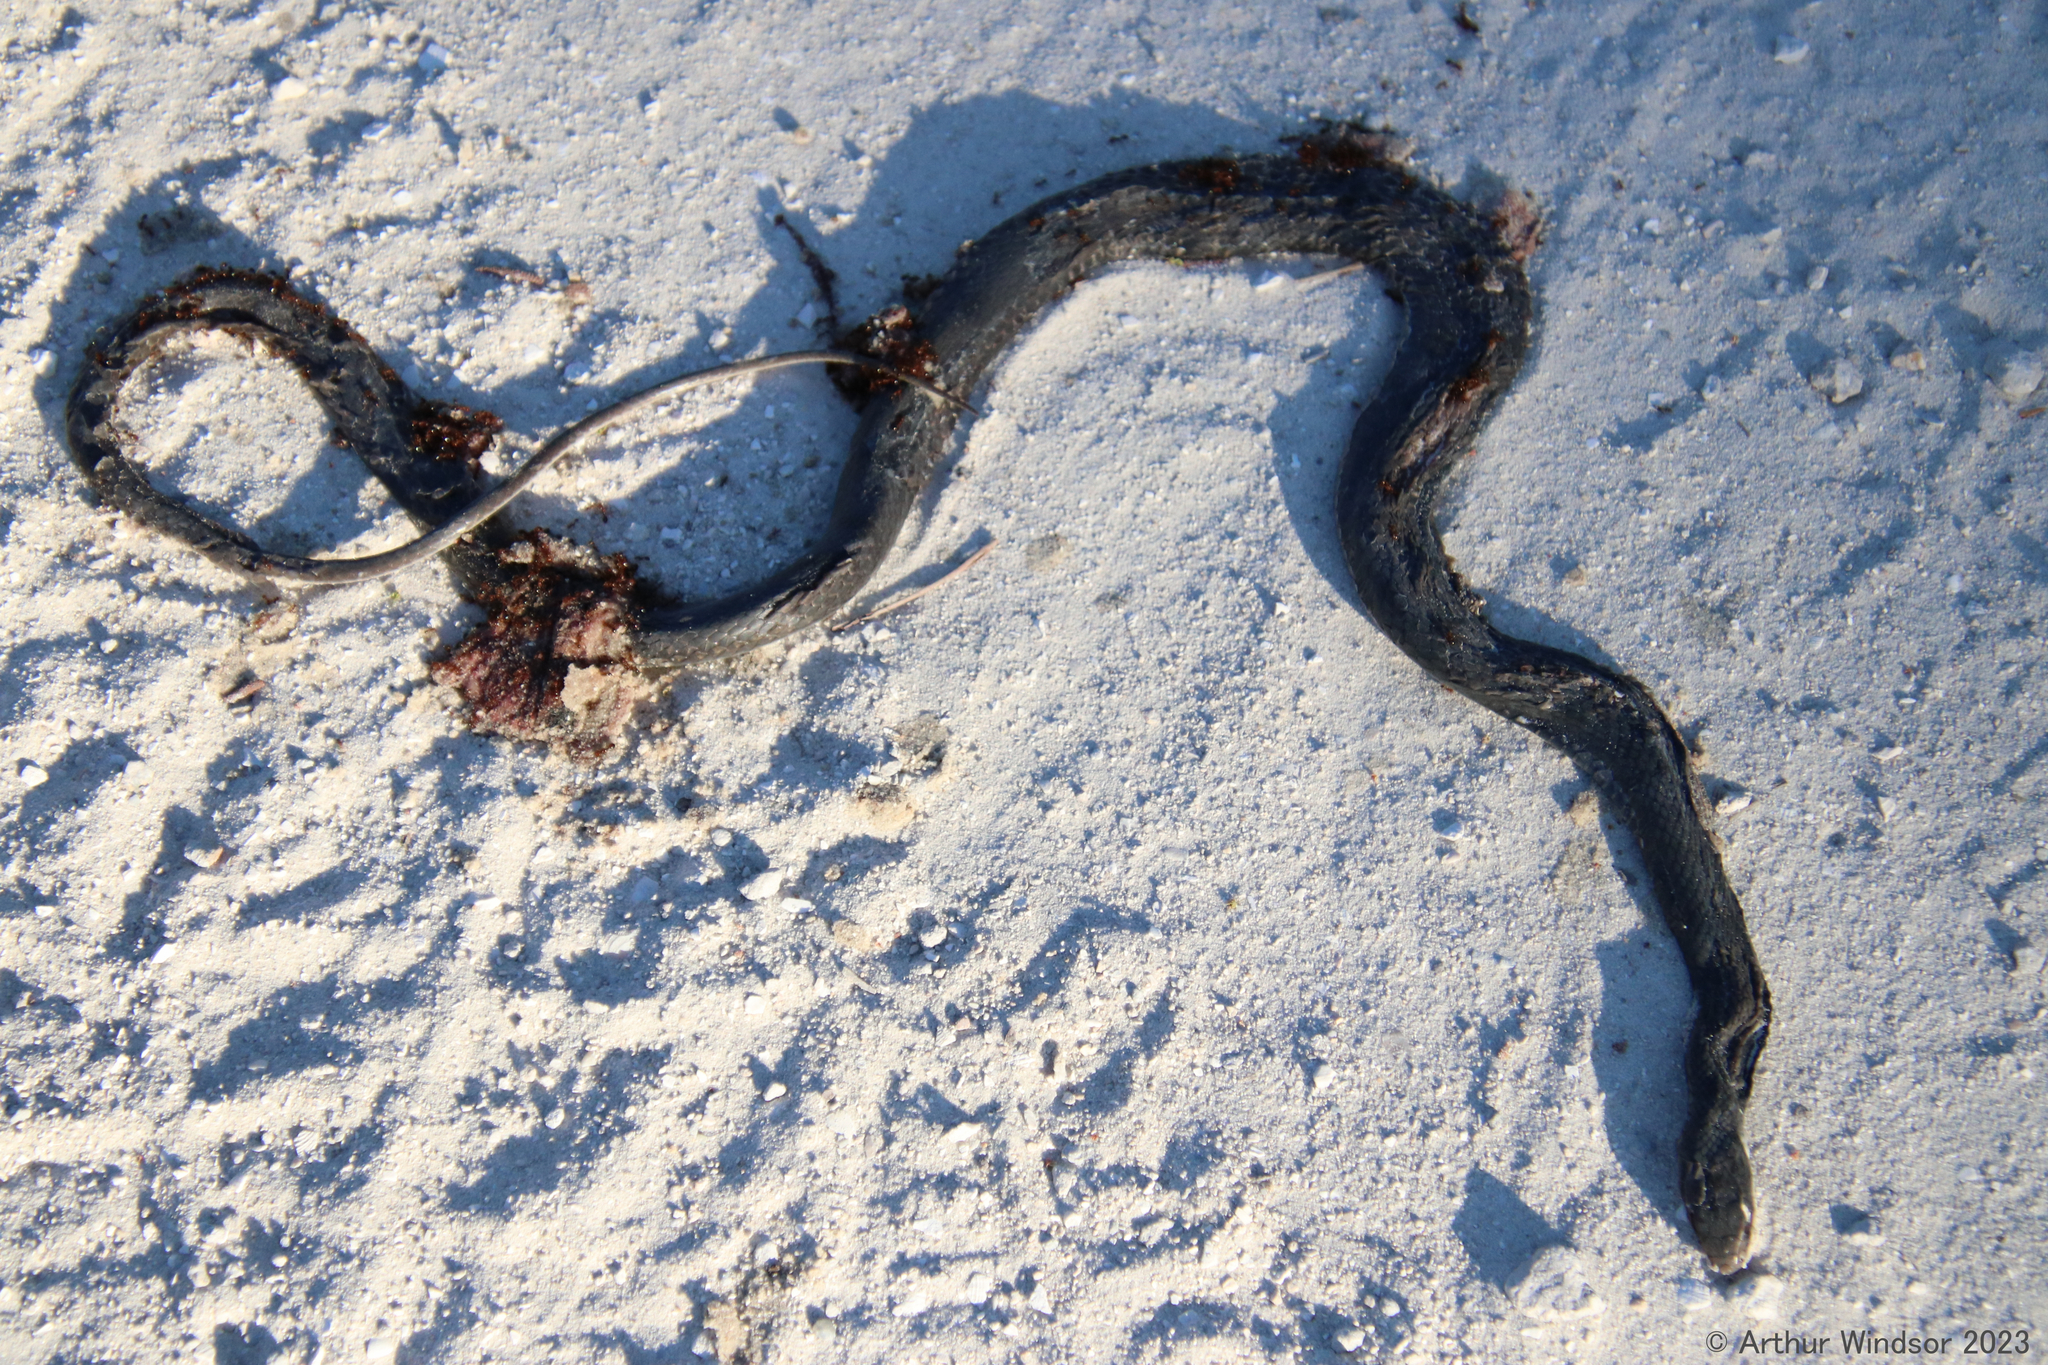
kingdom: Animalia
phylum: Chordata
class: Squamata
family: Colubridae
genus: Coluber
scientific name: Coluber constrictor
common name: Eastern racer
